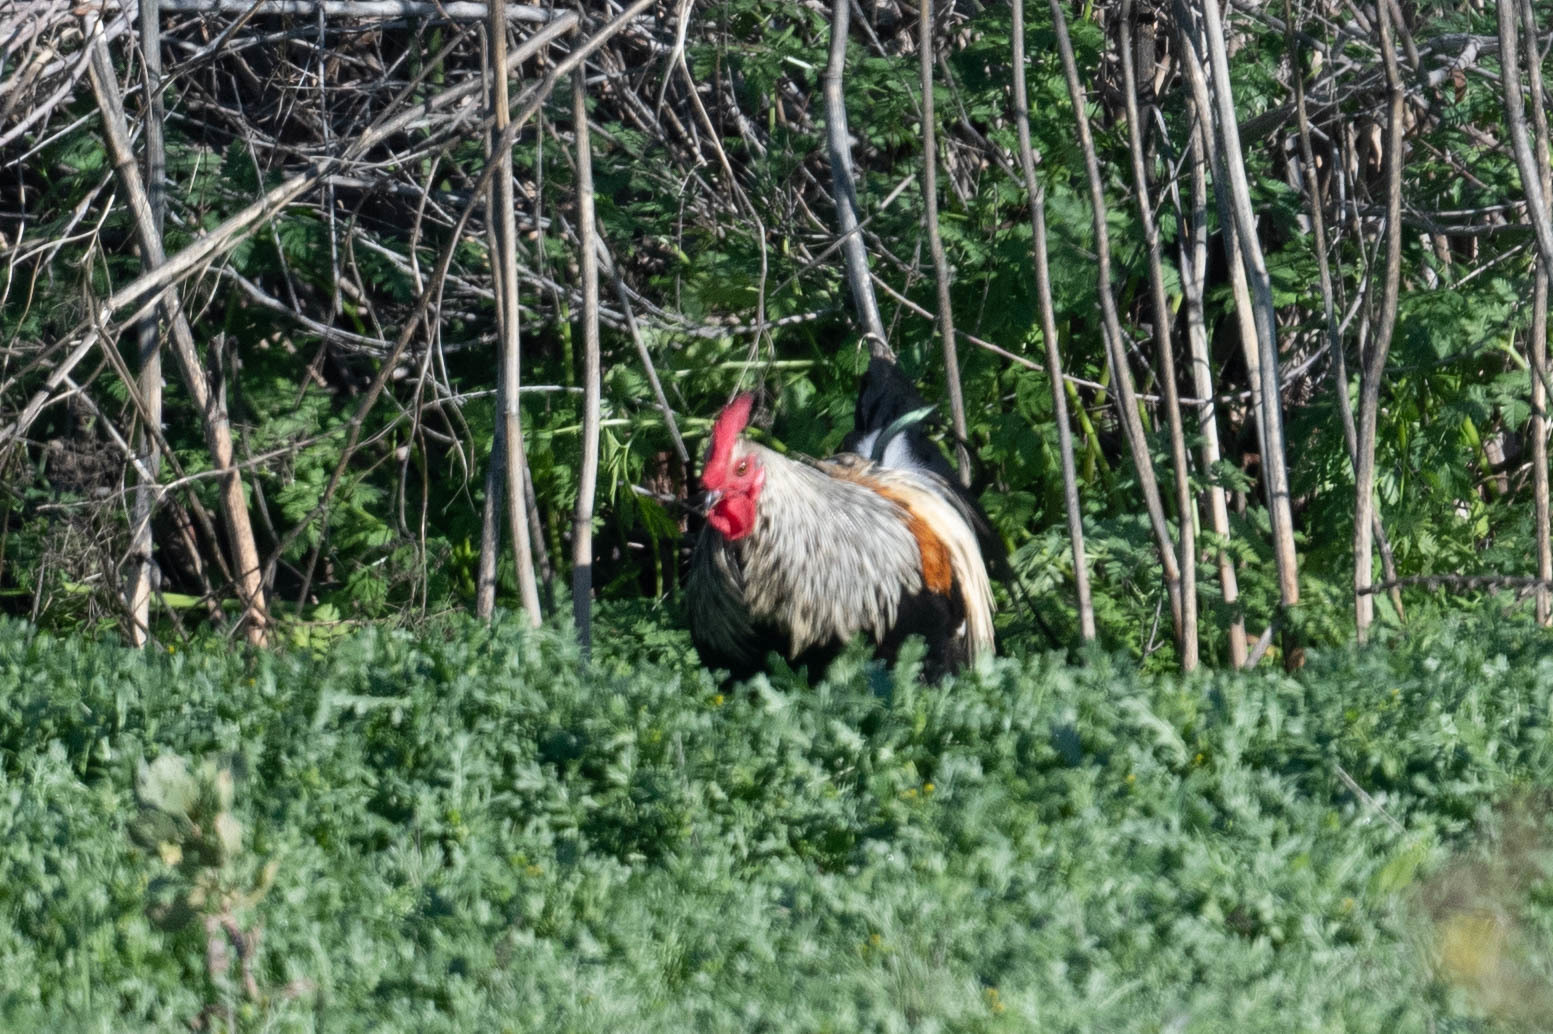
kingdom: Animalia
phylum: Chordata
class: Aves
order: Galliformes
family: Phasianidae
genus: Gallus
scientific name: Gallus gallus
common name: Red junglefowl
